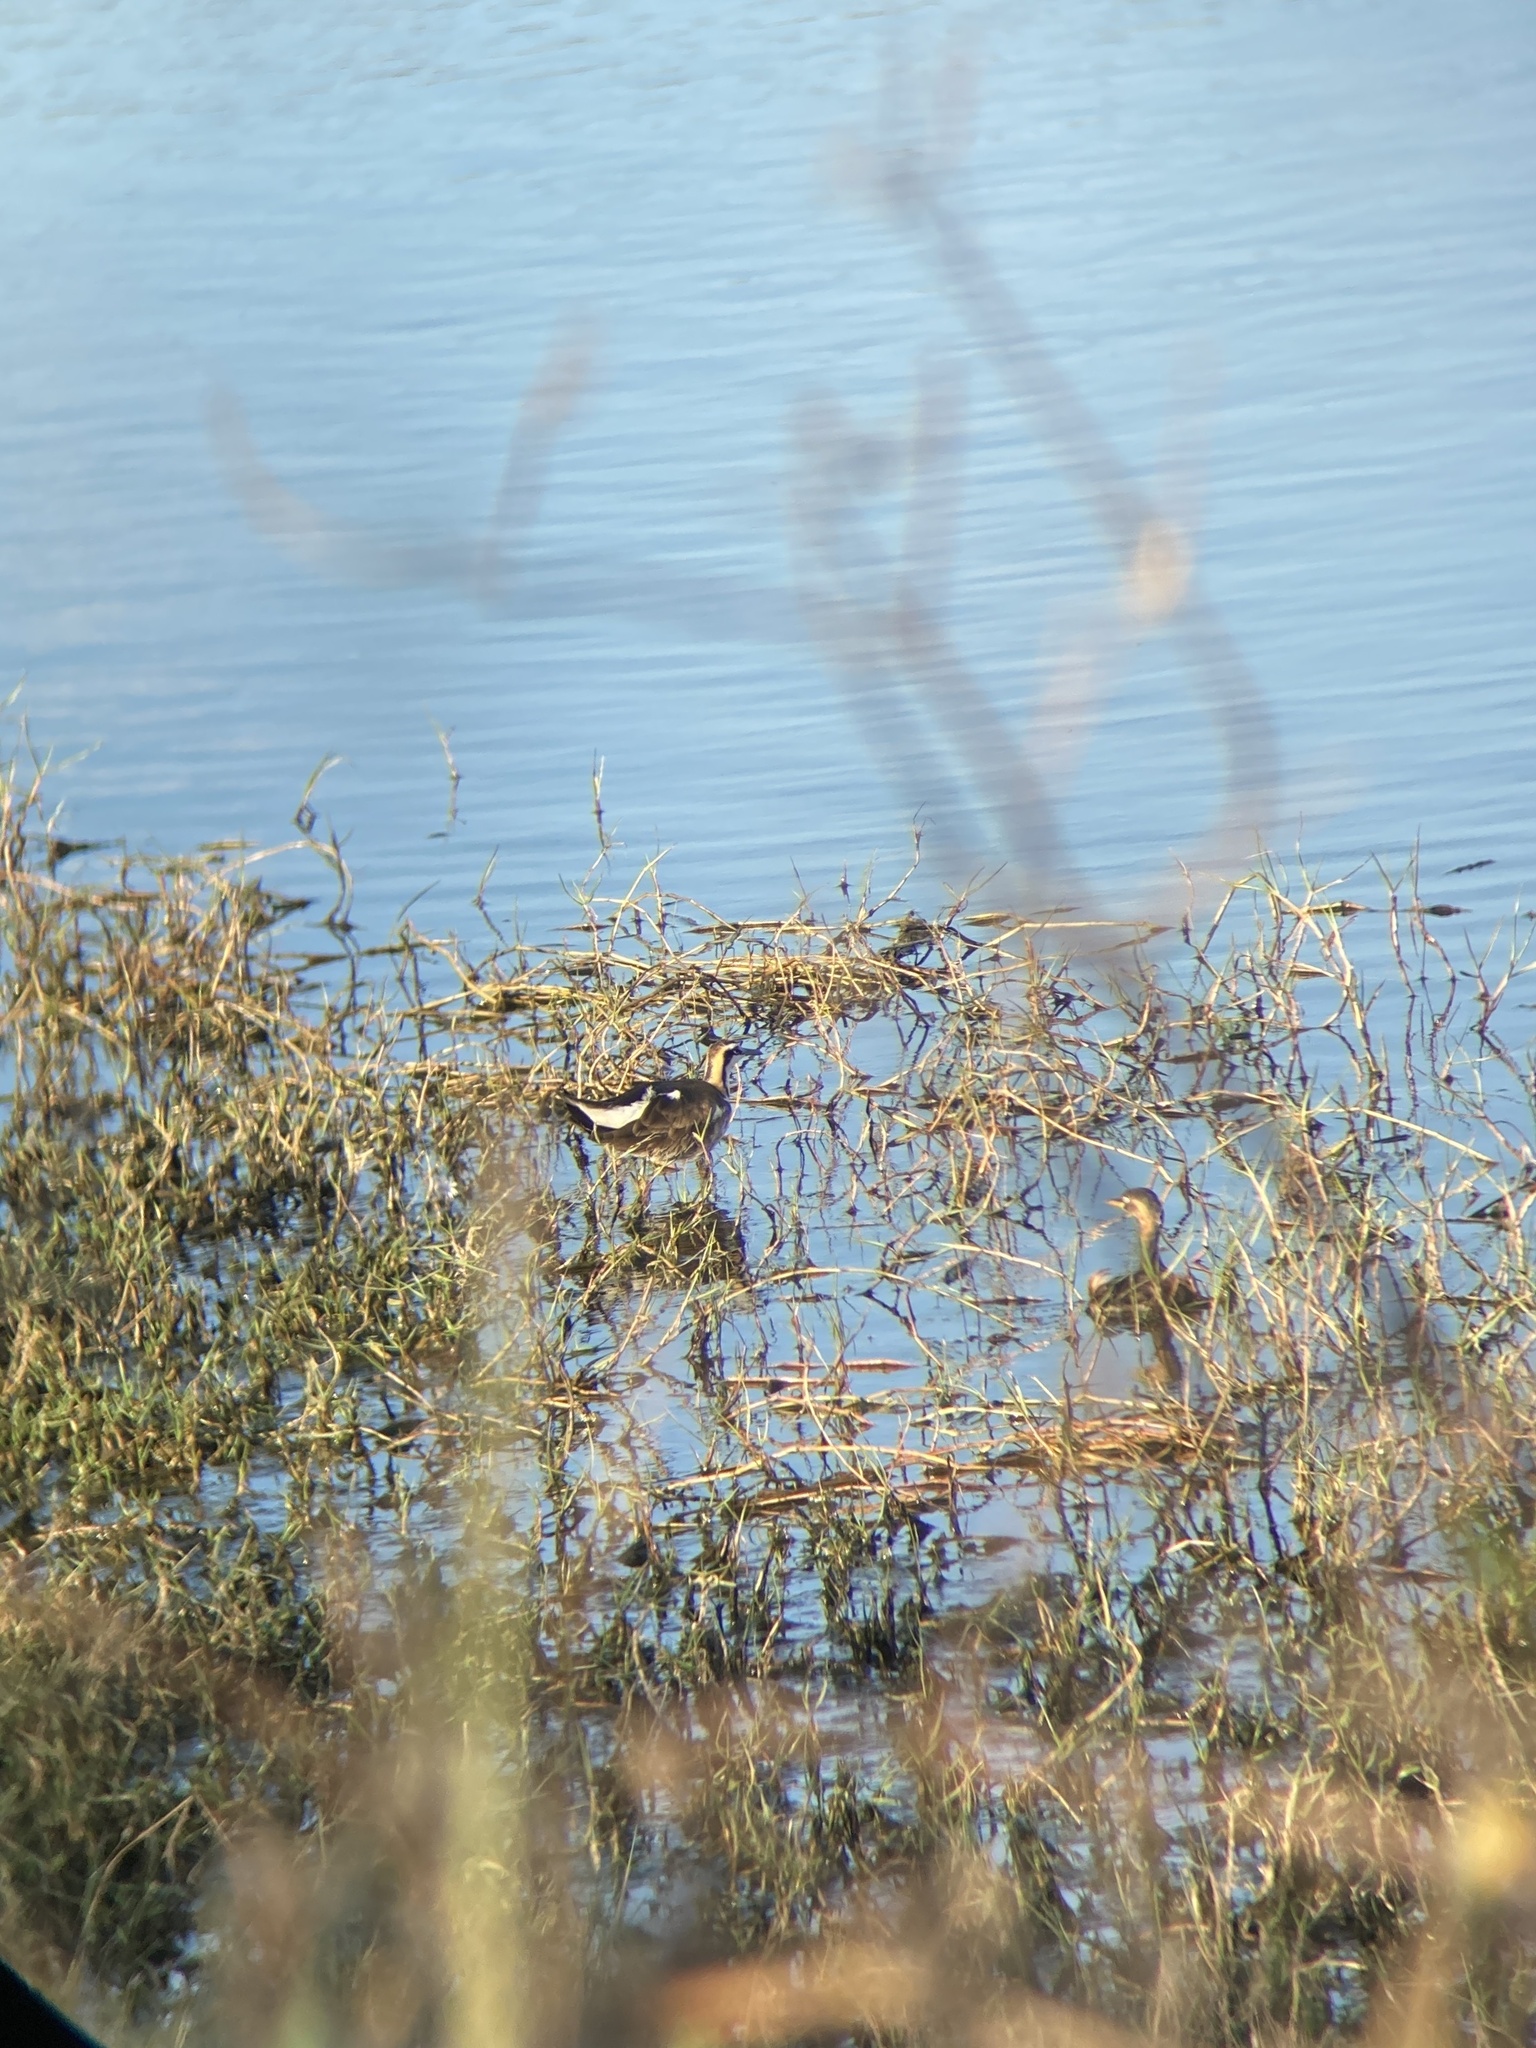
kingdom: Animalia
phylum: Chordata
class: Aves
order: Charadriiformes
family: Jacanidae
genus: Hydrophasianus
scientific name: Hydrophasianus chirurgus
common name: Pheasant-tailed jacana
